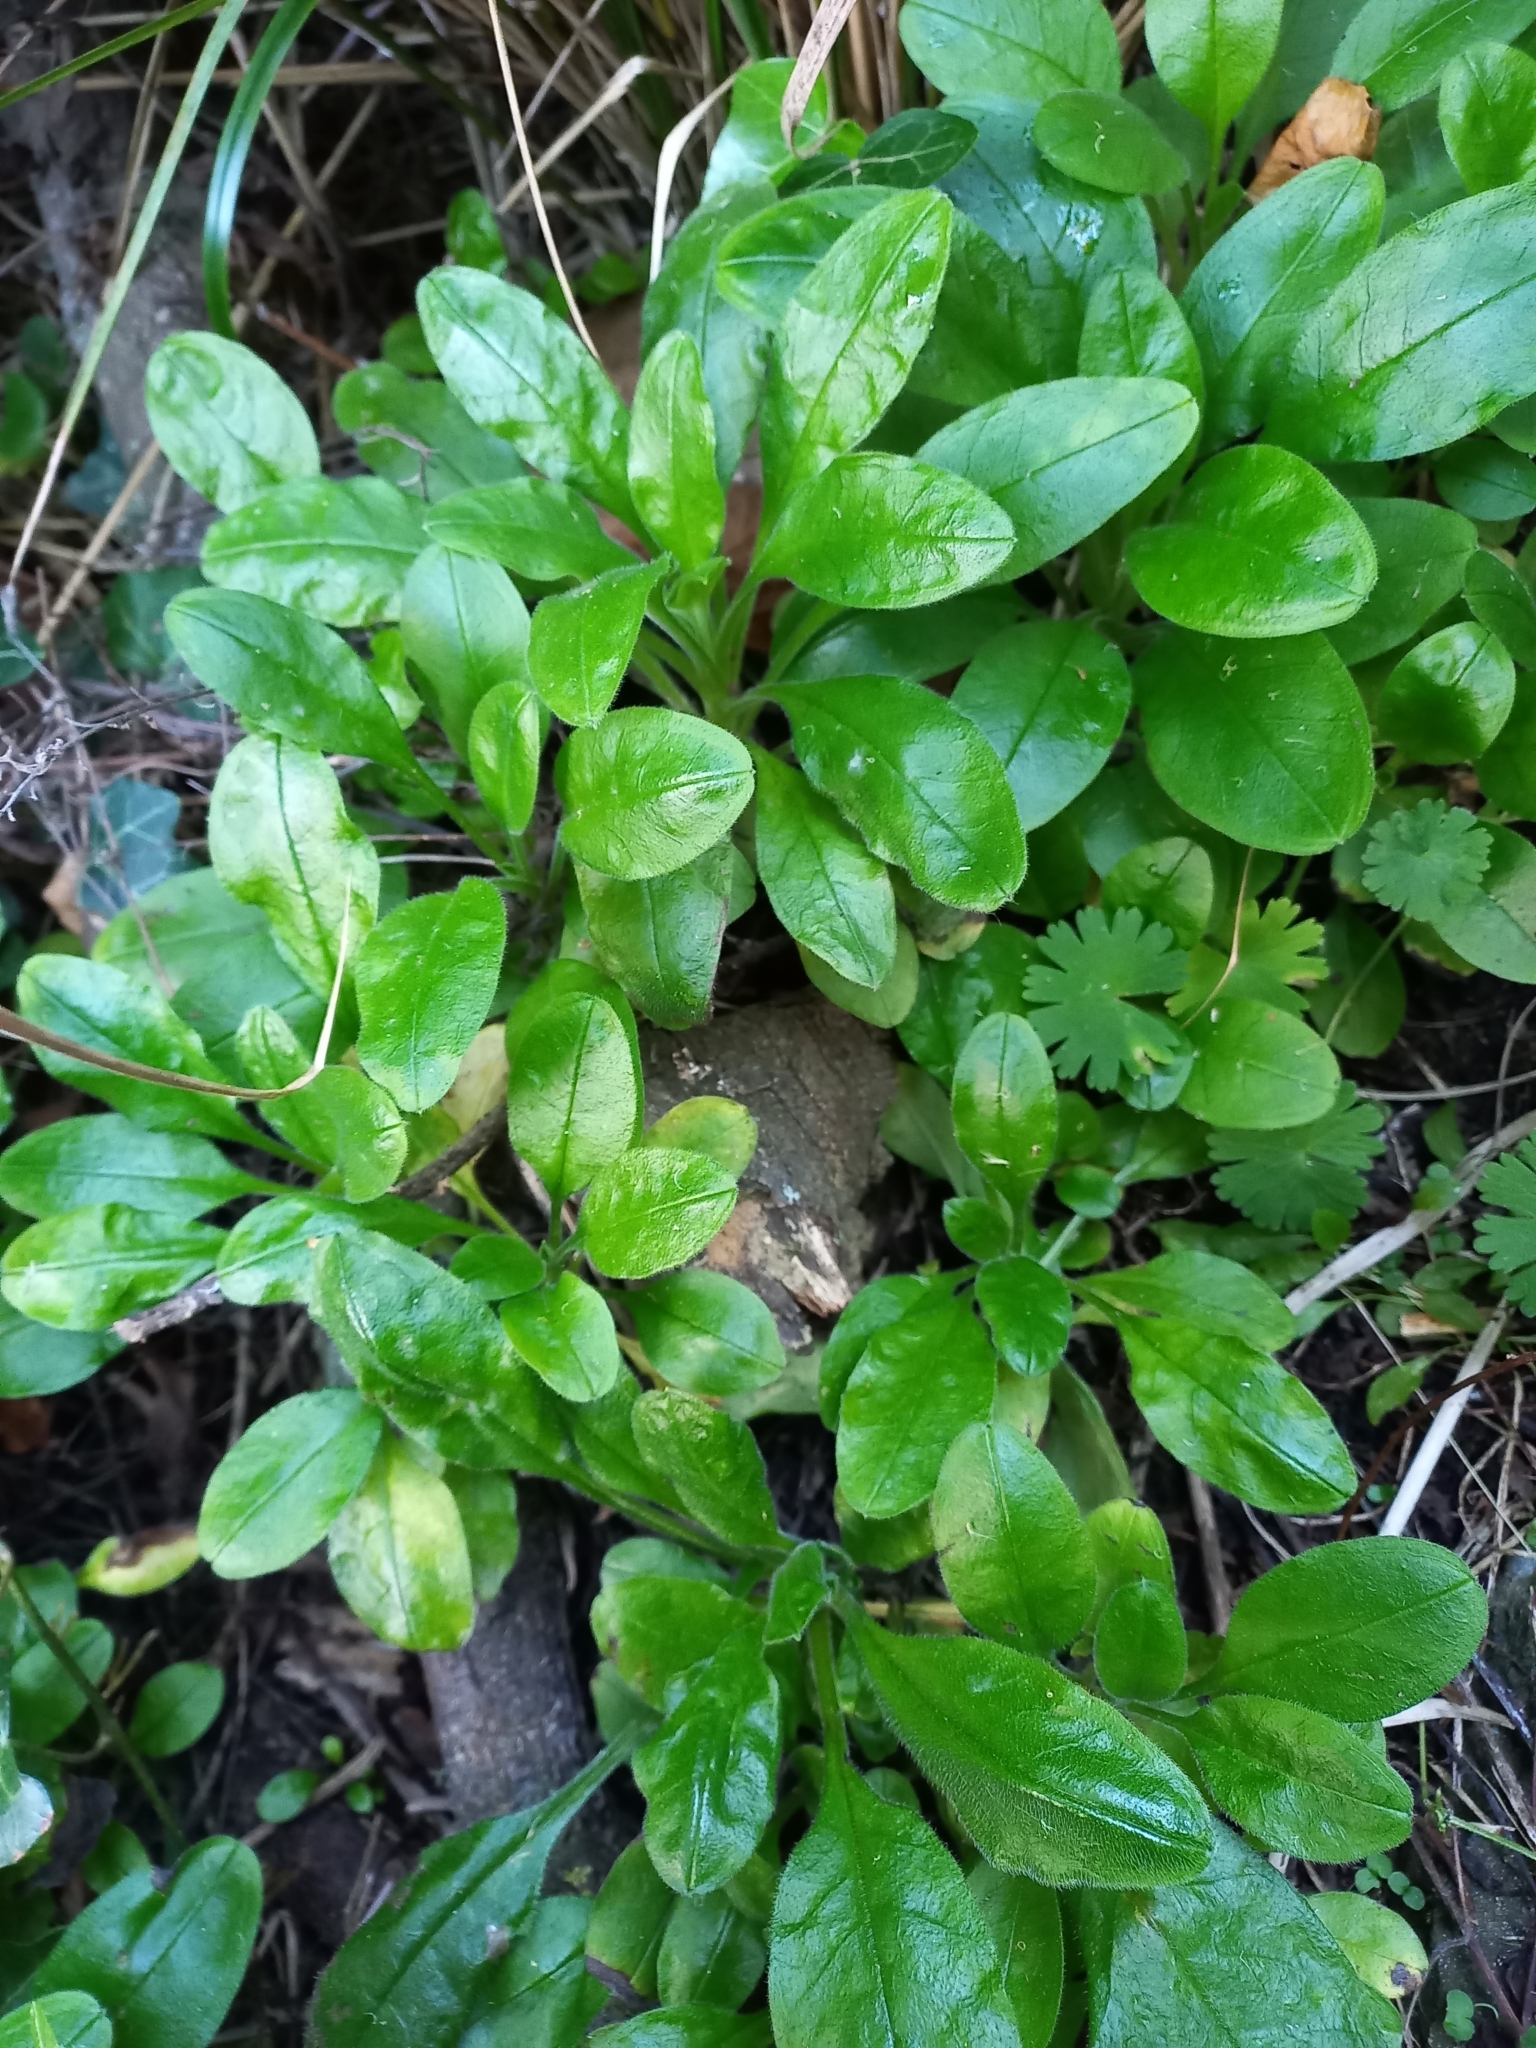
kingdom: Plantae
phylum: Tracheophyta
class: Magnoliopsida
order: Boraginales
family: Boraginaceae
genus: Myosotis
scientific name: Myosotis sylvatica
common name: Wood forget-me-not
